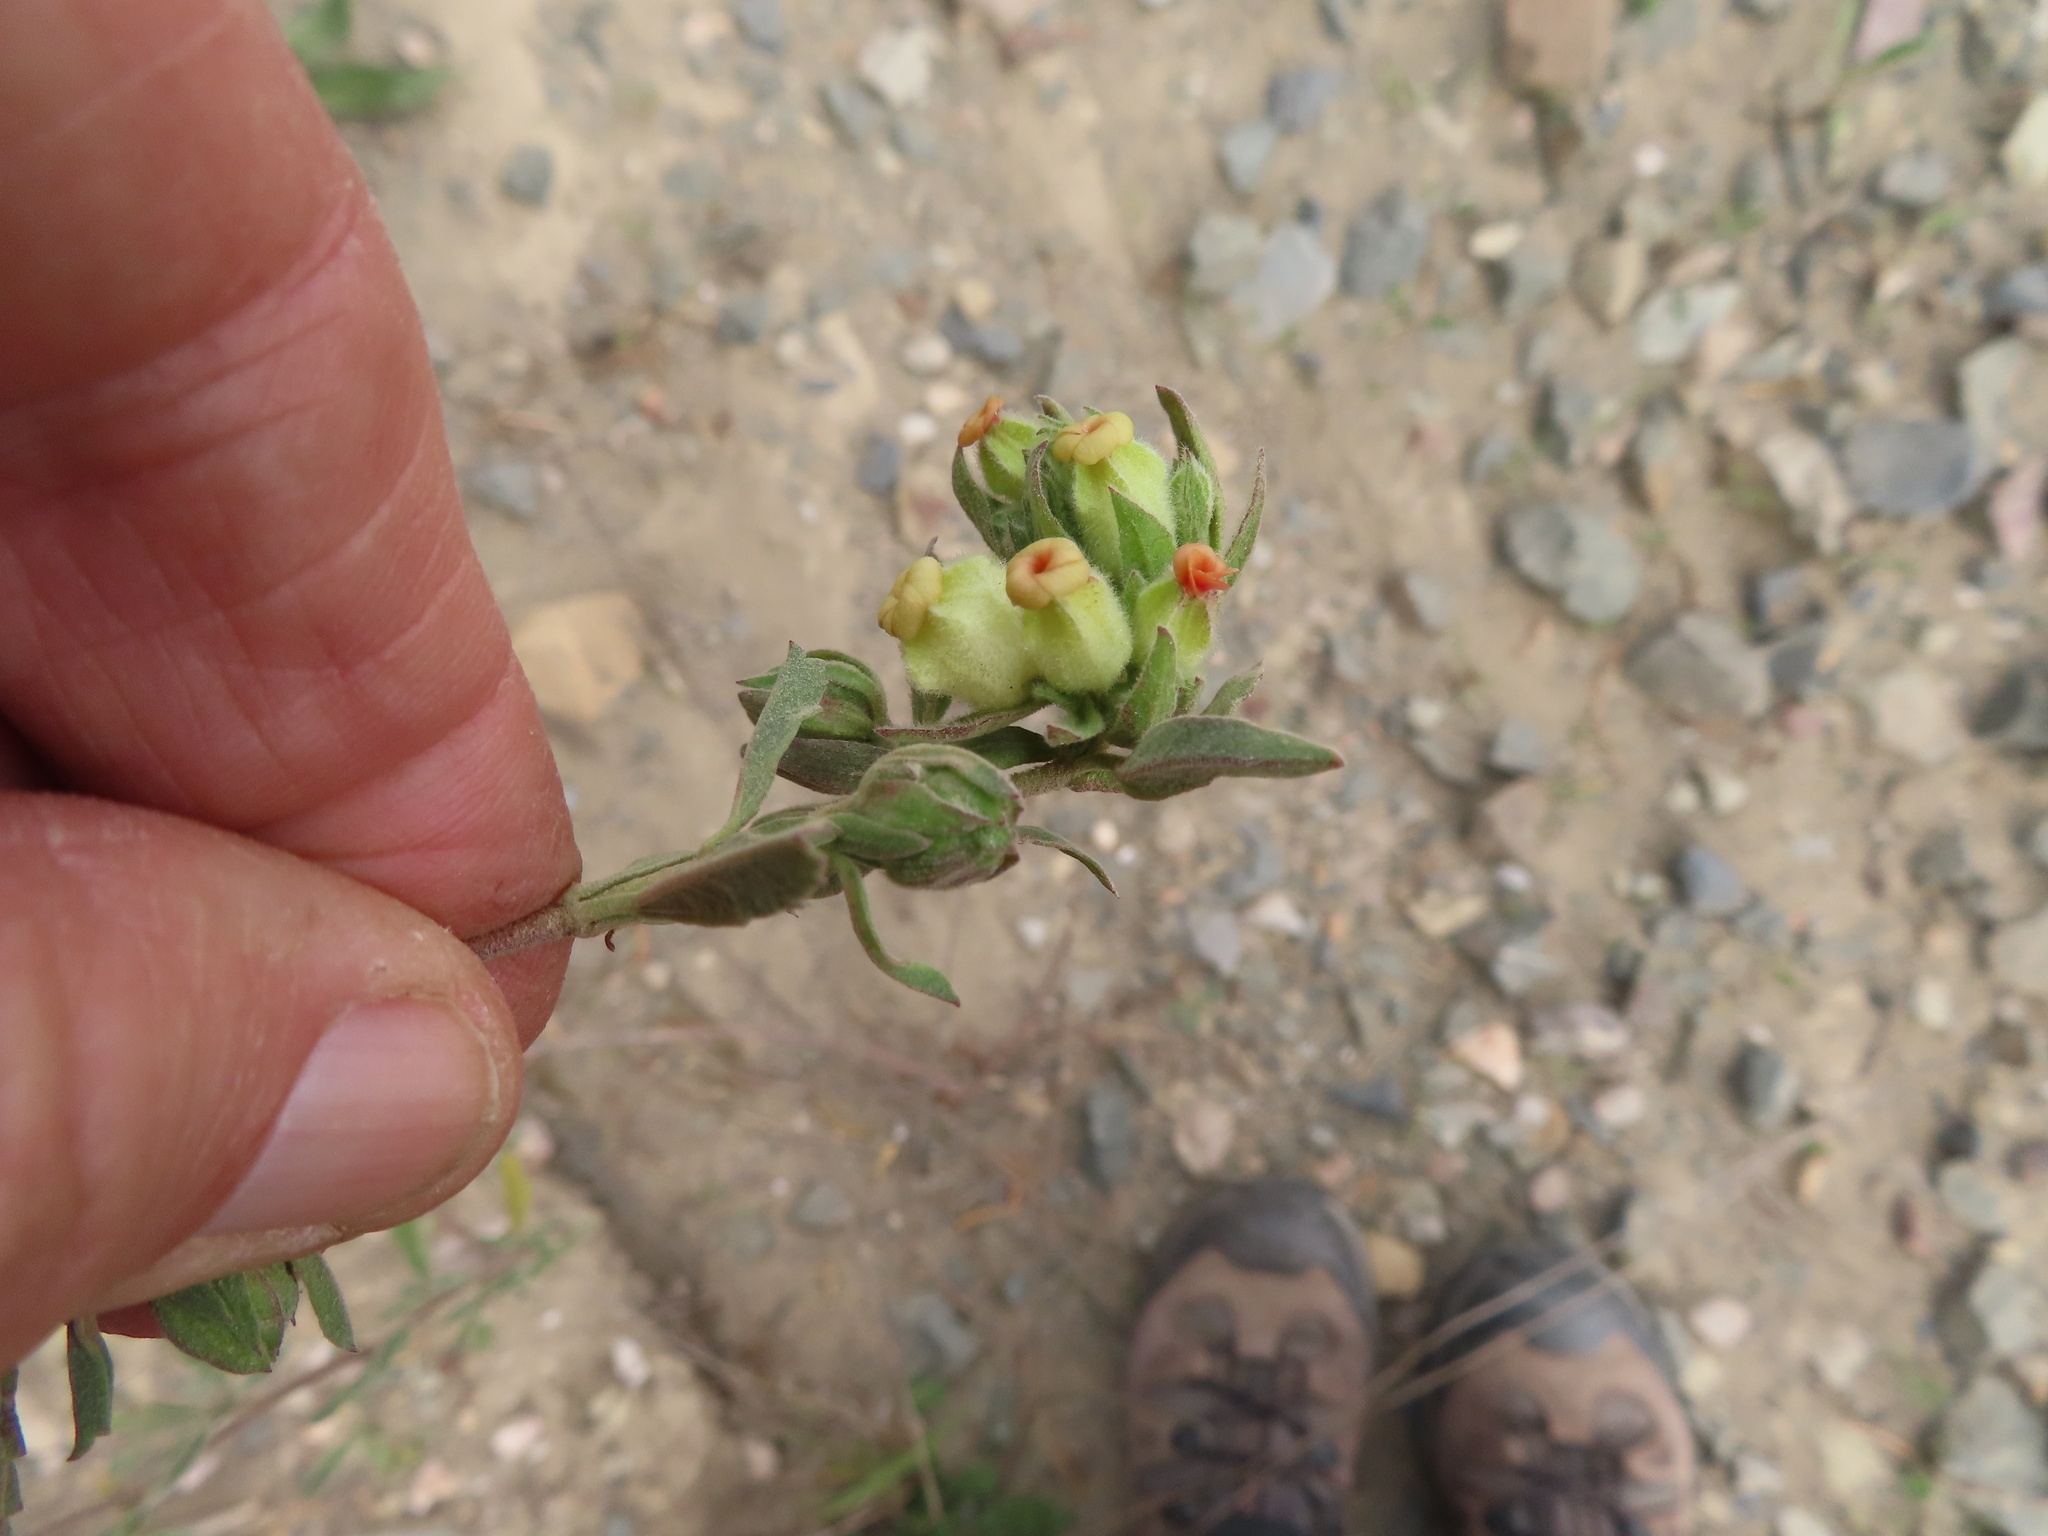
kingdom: Plantae
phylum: Tracheophyta
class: Magnoliopsida
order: Malvales
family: Malvaceae
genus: Hermannia
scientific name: Hermannia hyssopifolia
